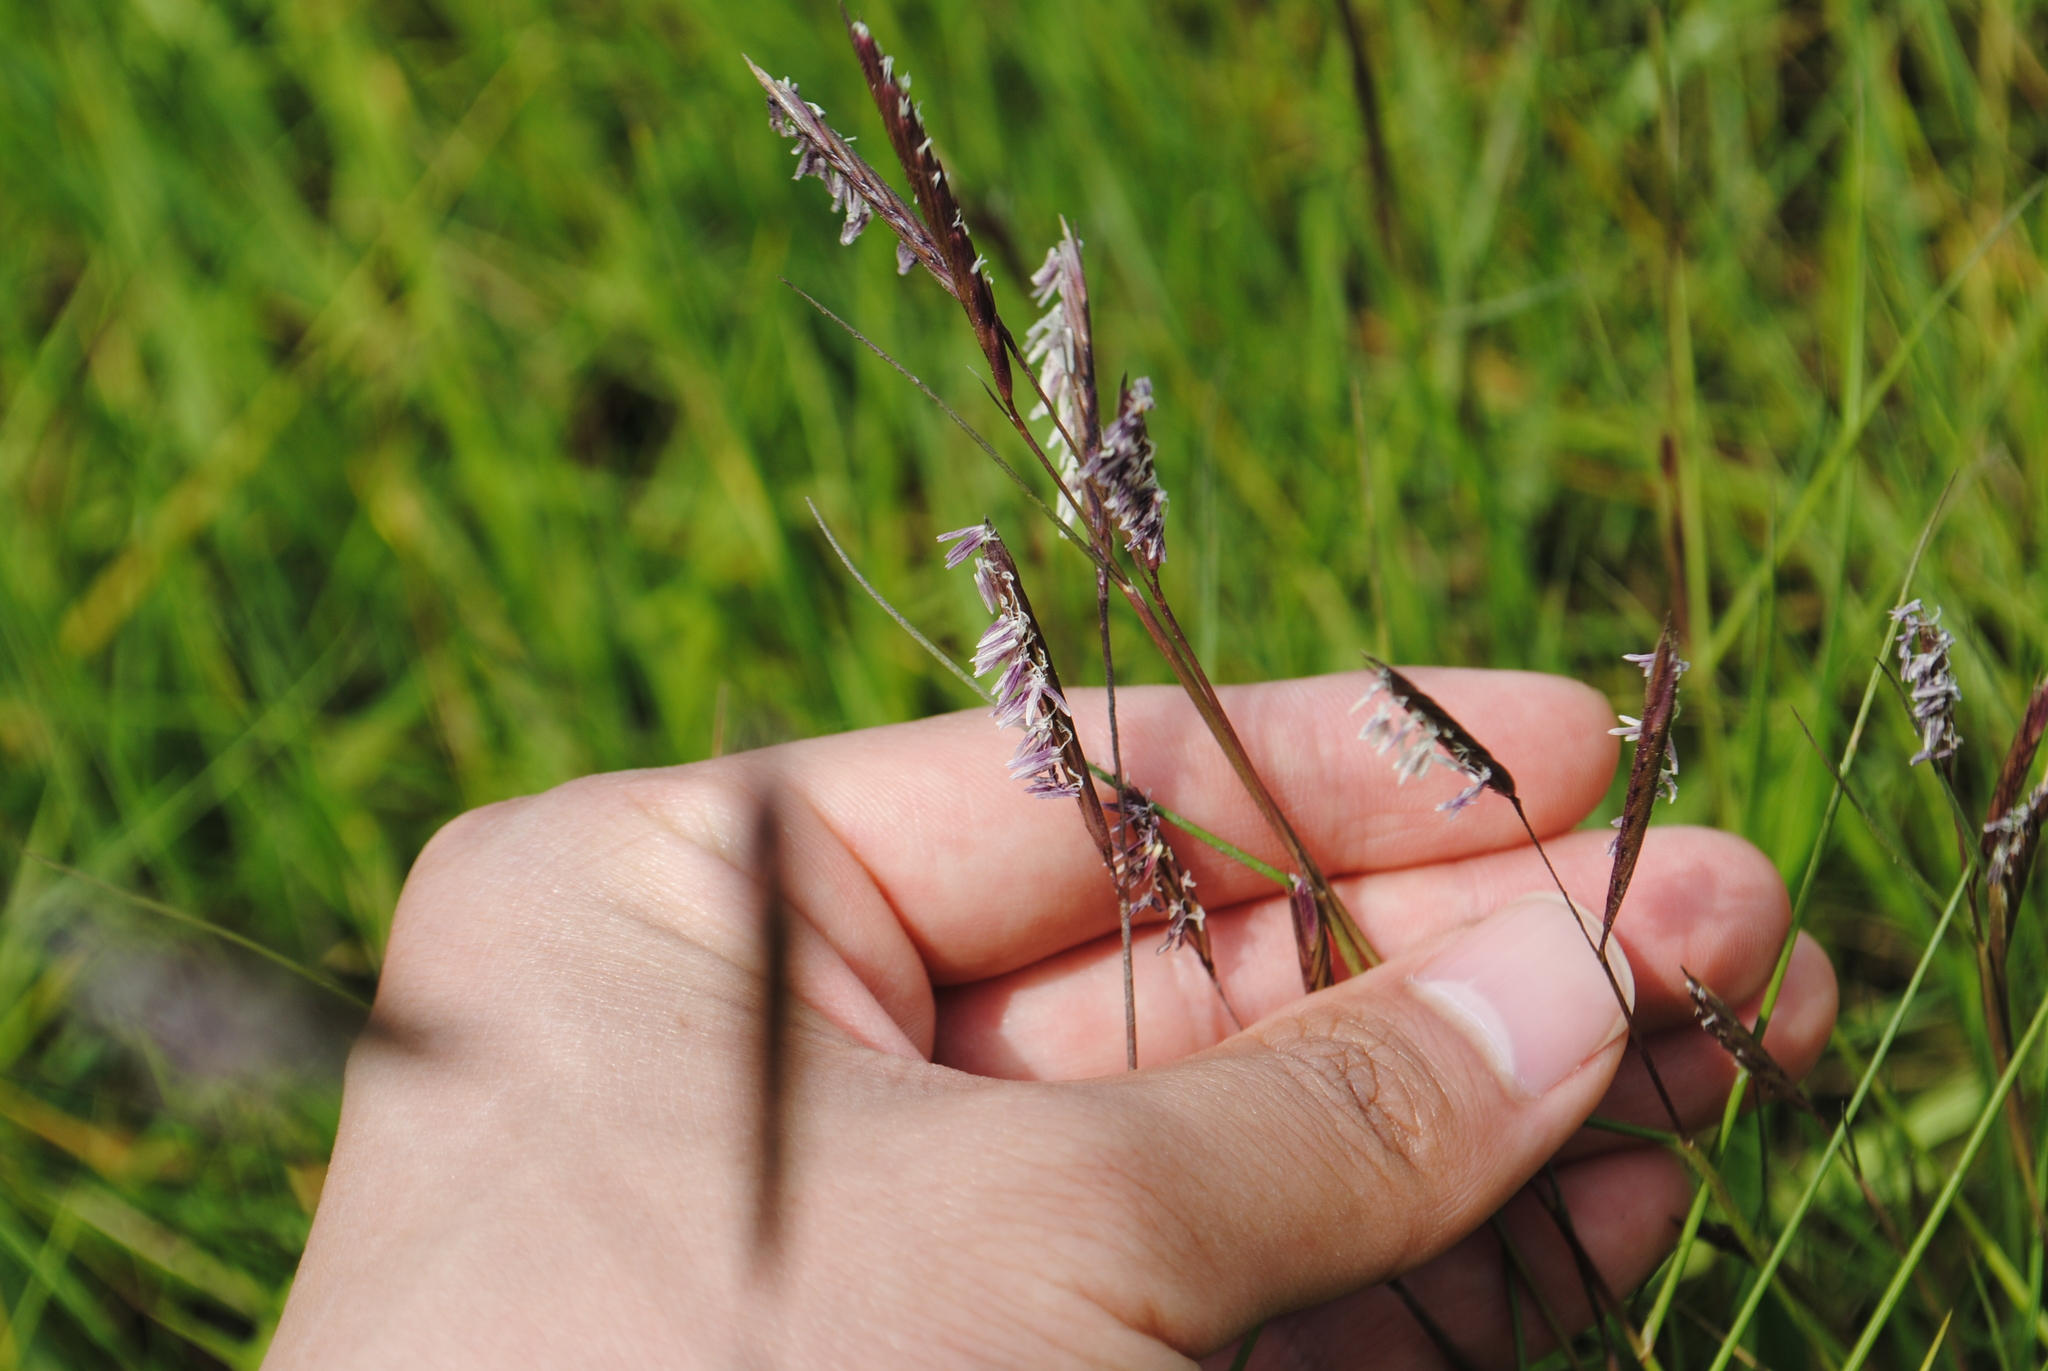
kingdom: Plantae
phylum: Tracheophyta
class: Liliopsida
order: Poales
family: Poaceae
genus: Sporobolus
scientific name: Sporobolus pumilus
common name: Highwater grass
